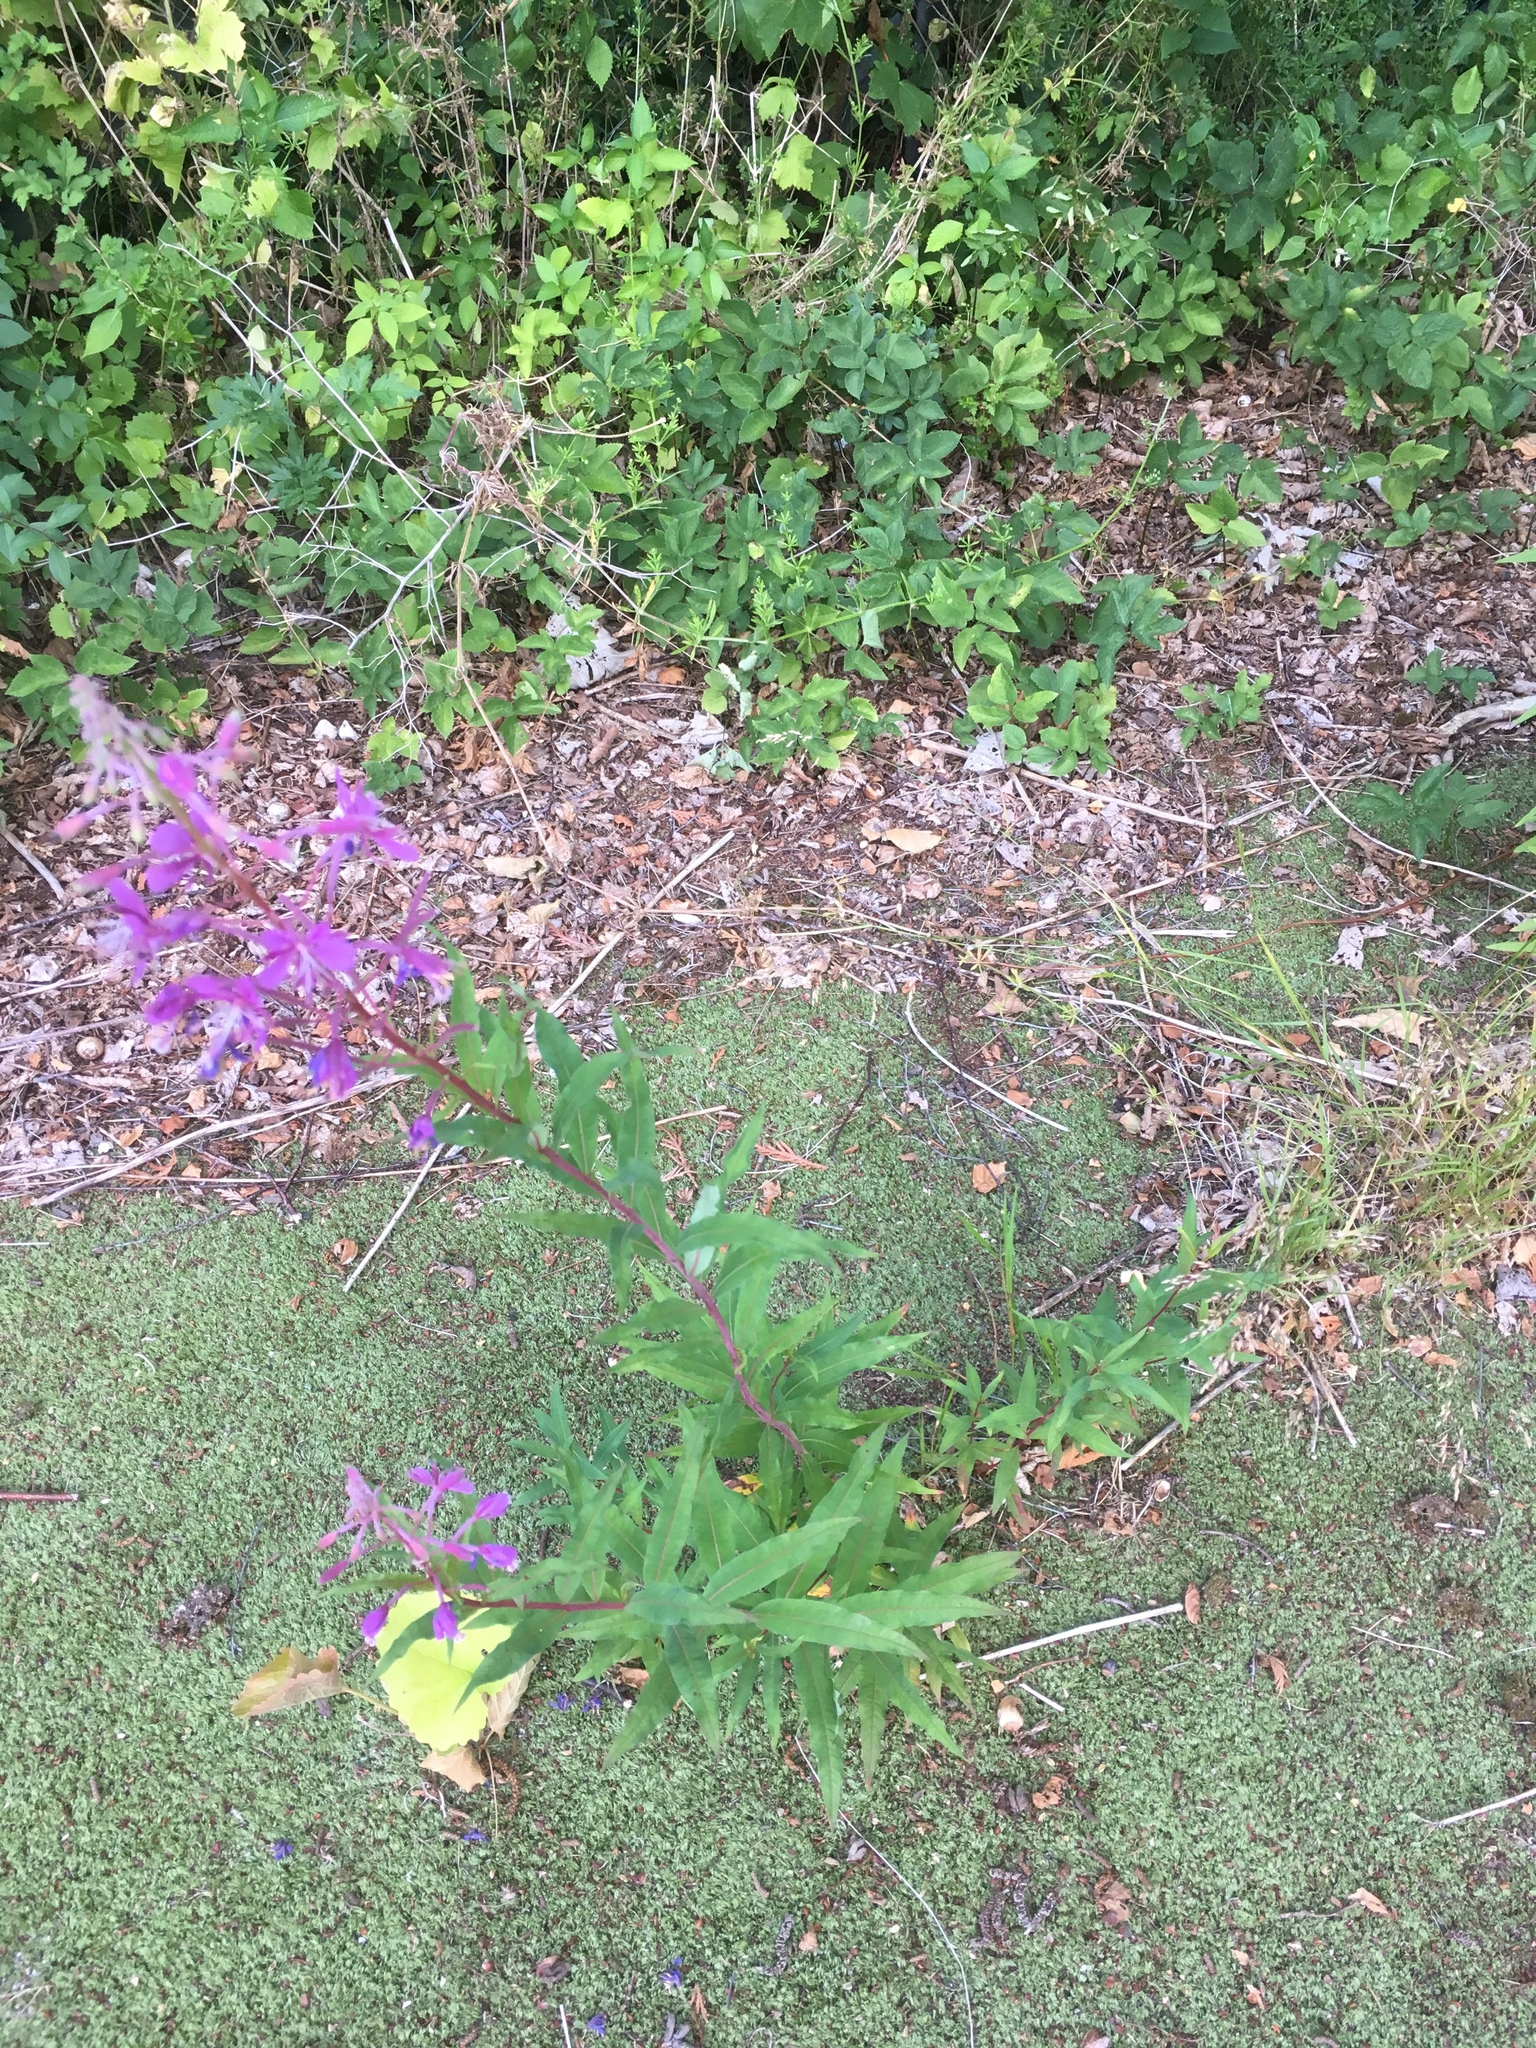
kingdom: Plantae
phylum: Tracheophyta
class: Magnoliopsida
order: Myrtales
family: Onagraceae
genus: Chamaenerion
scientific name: Chamaenerion angustifolium
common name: Fireweed
